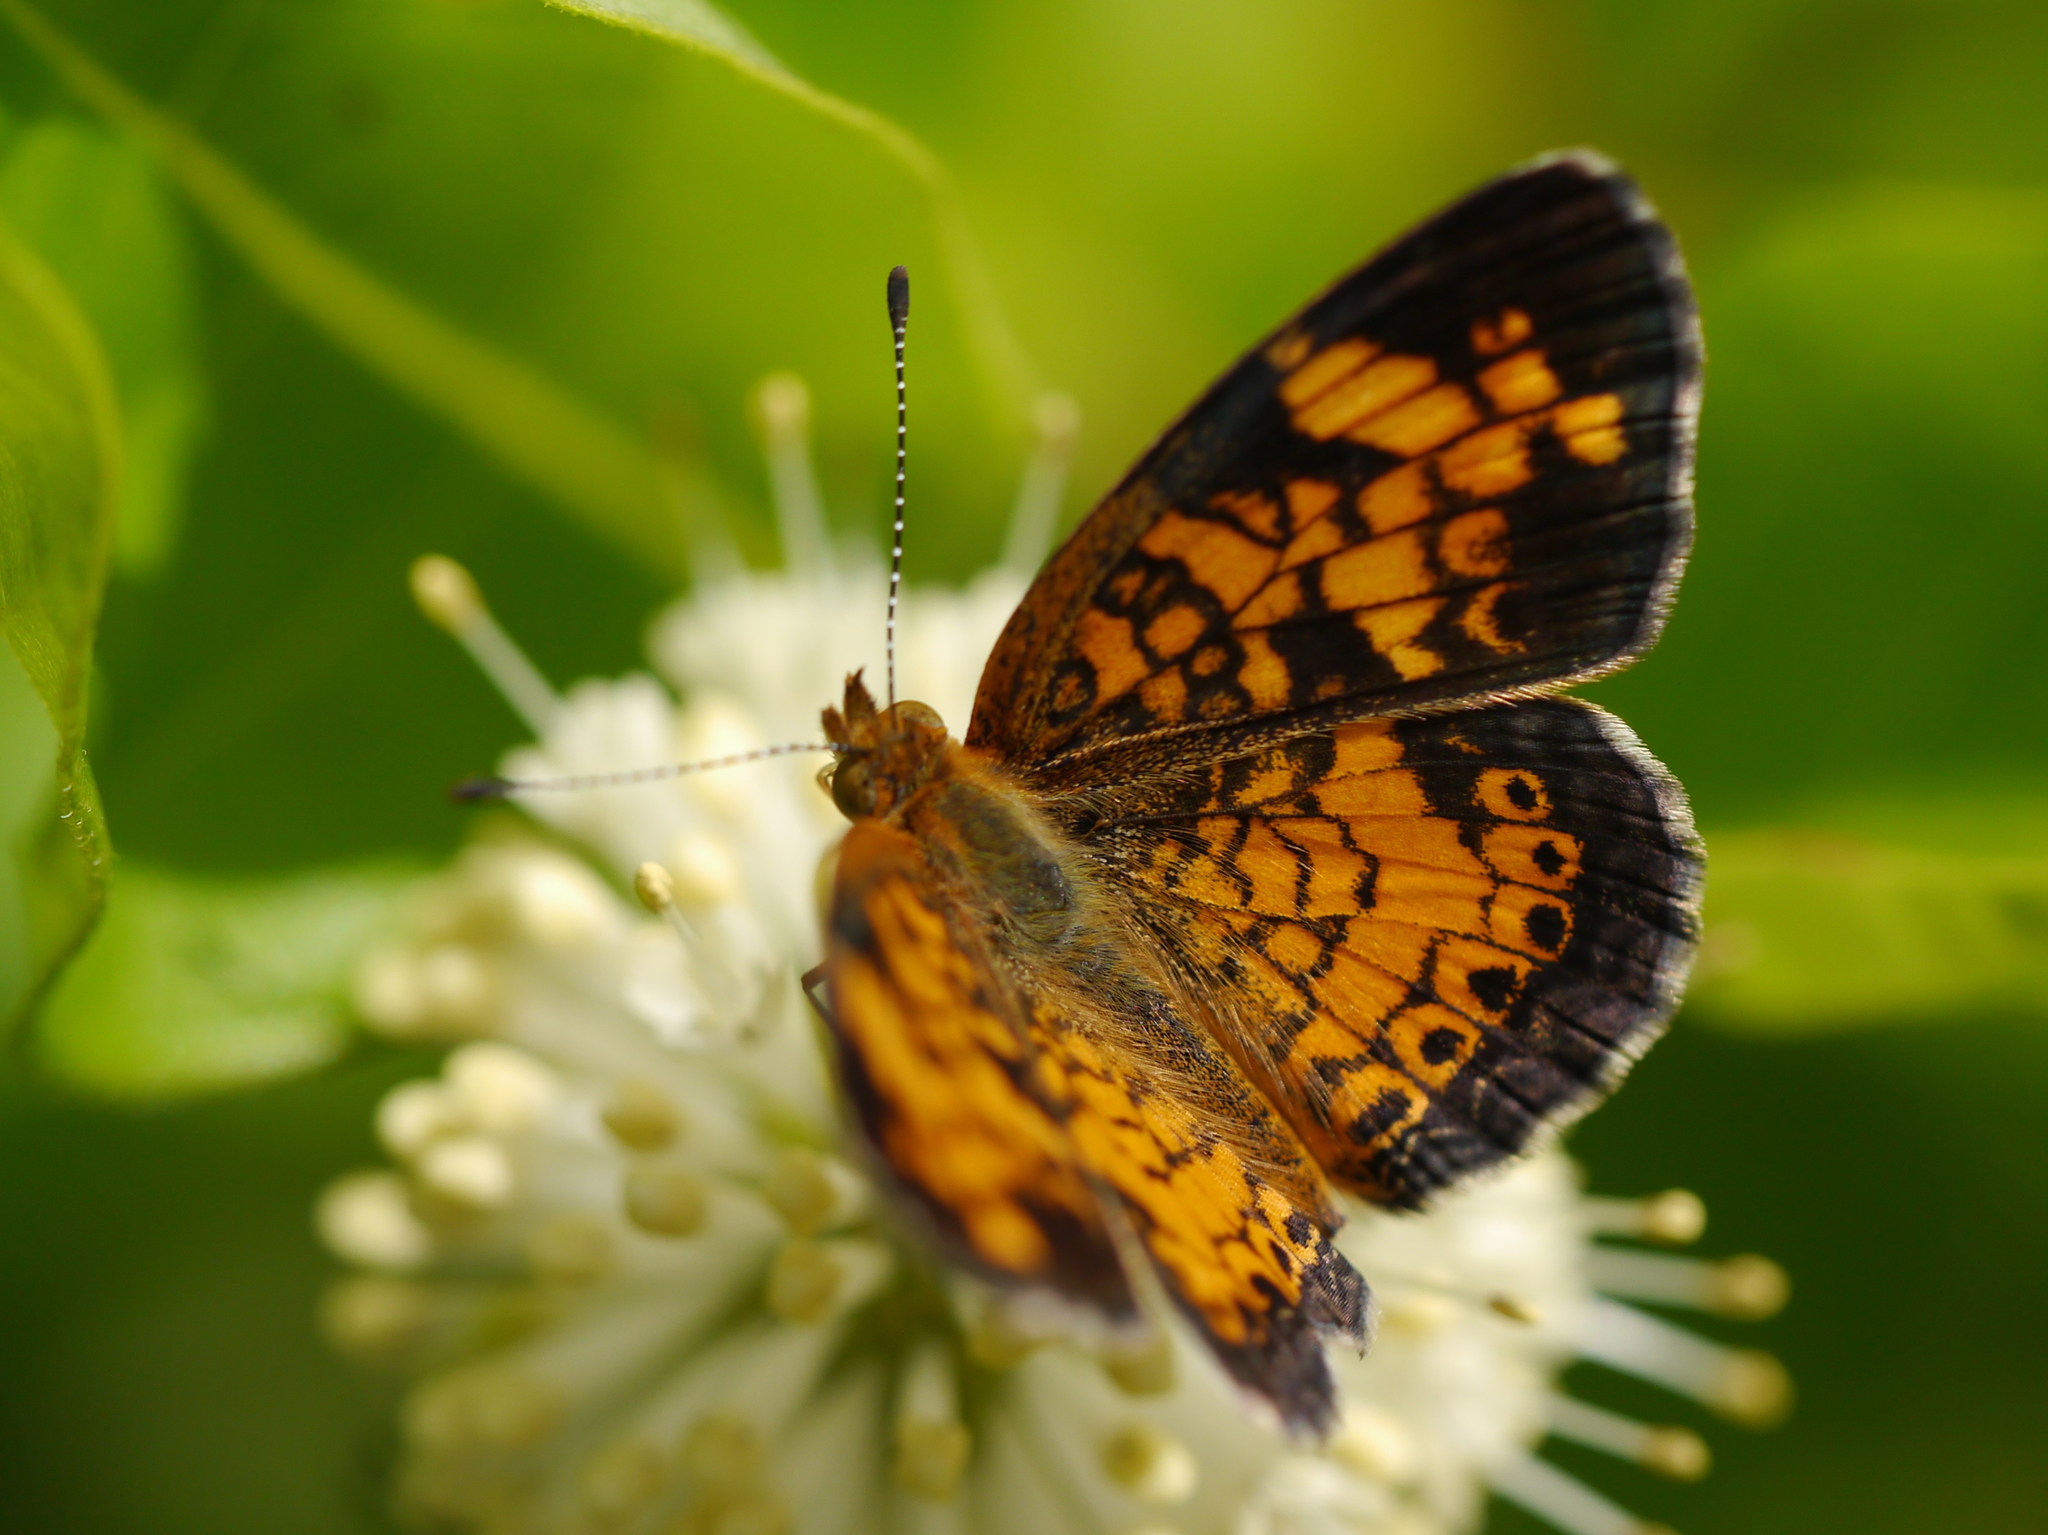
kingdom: Animalia
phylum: Arthropoda
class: Insecta
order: Lepidoptera
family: Nymphalidae
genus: Phyciodes
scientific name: Phyciodes tharos
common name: Pearl crescent
